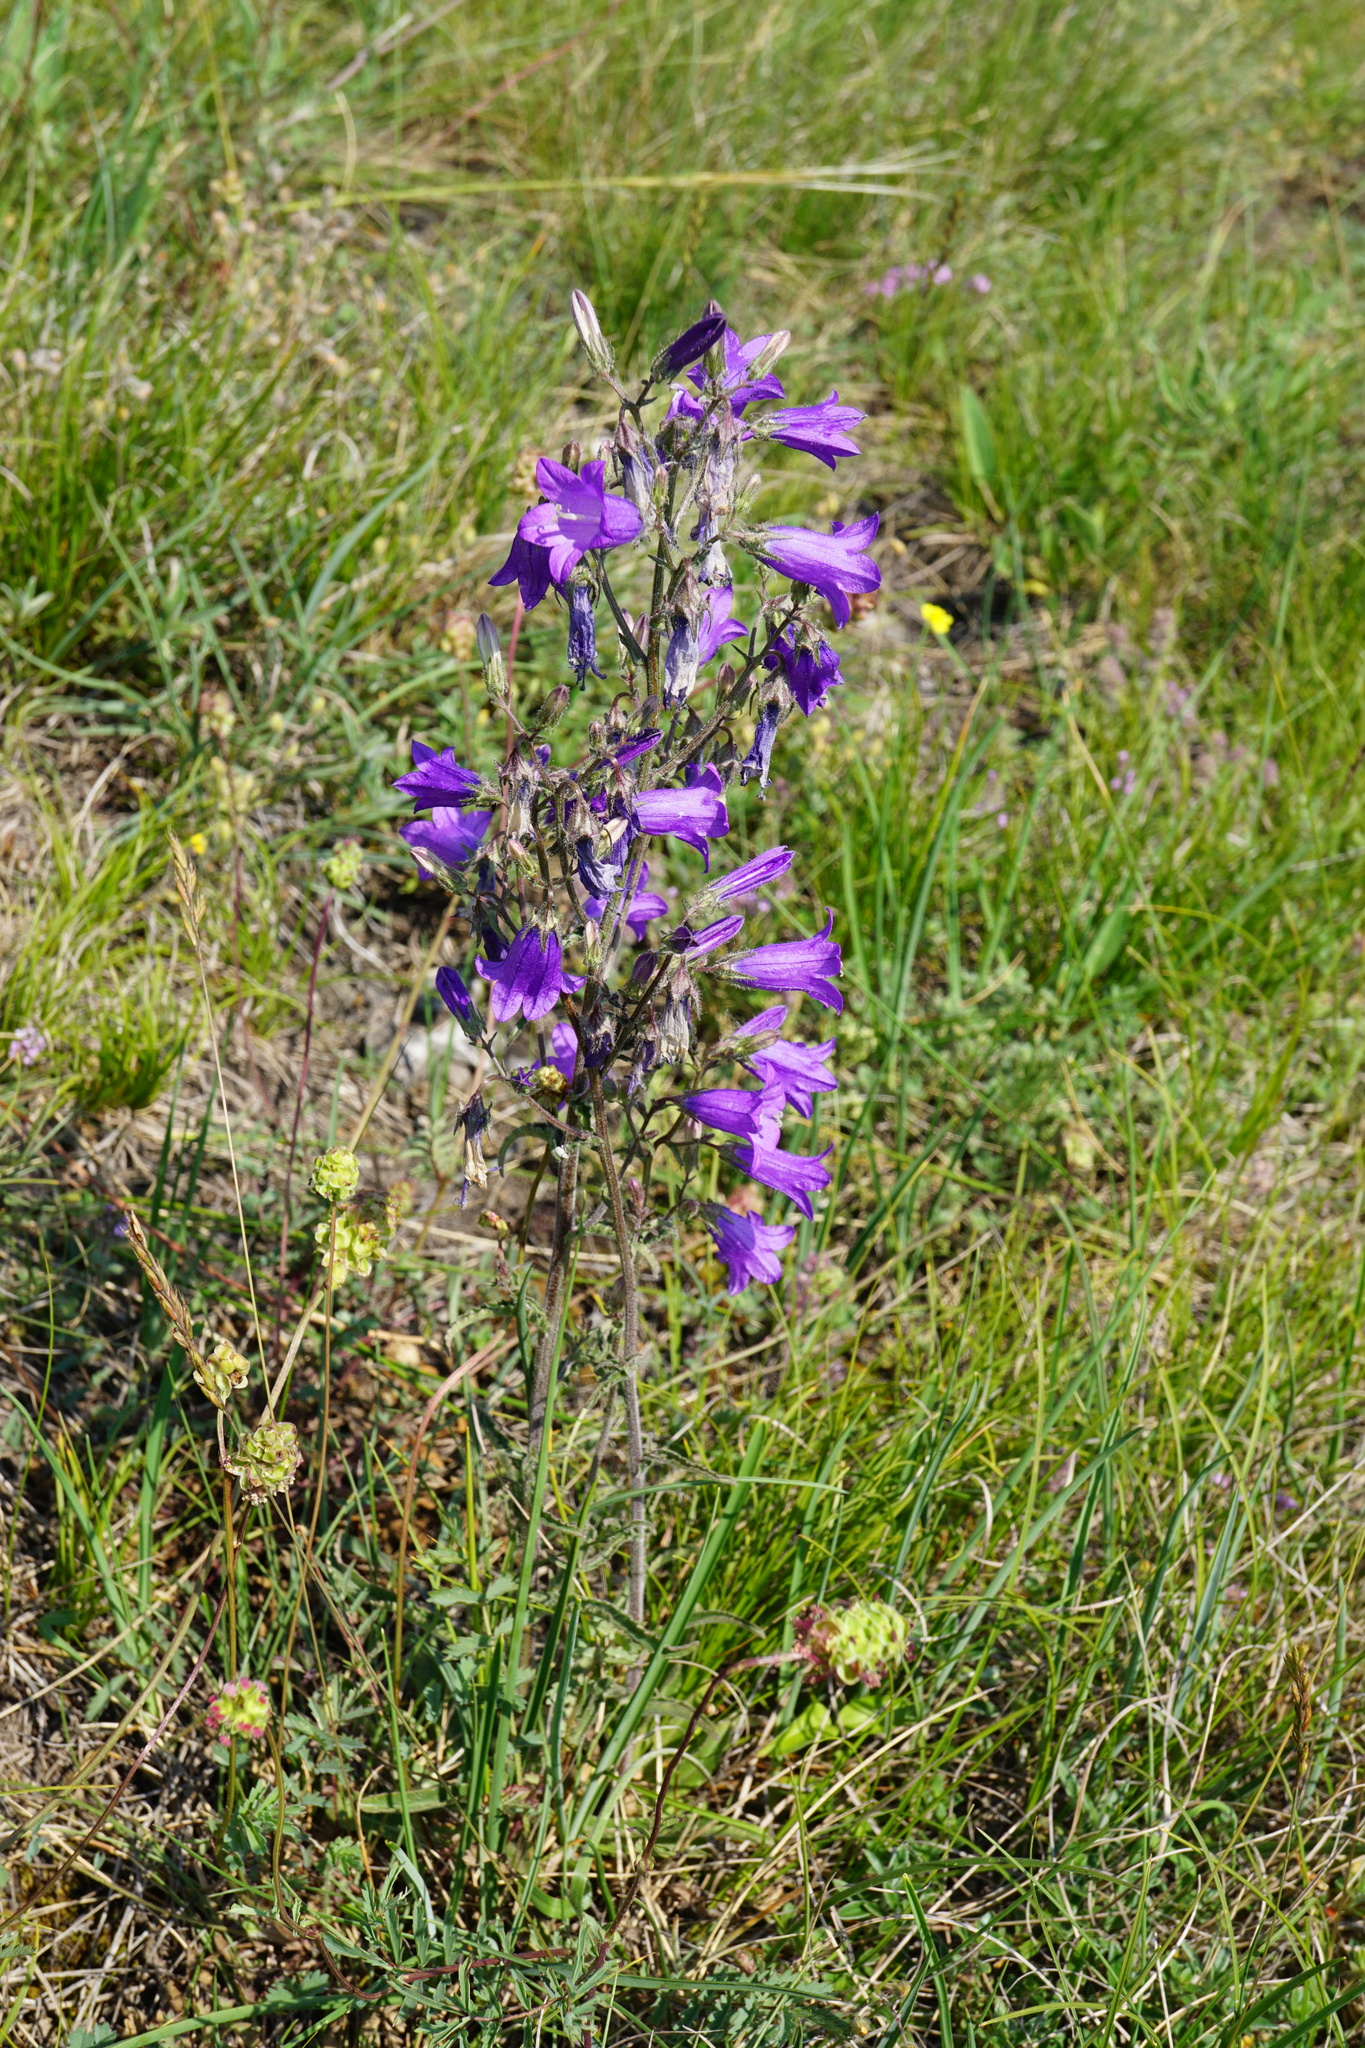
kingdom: Plantae
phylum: Tracheophyta
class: Magnoliopsida
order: Asterales
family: Campanulaceae
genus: Campanula
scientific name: Campanula sibirica
